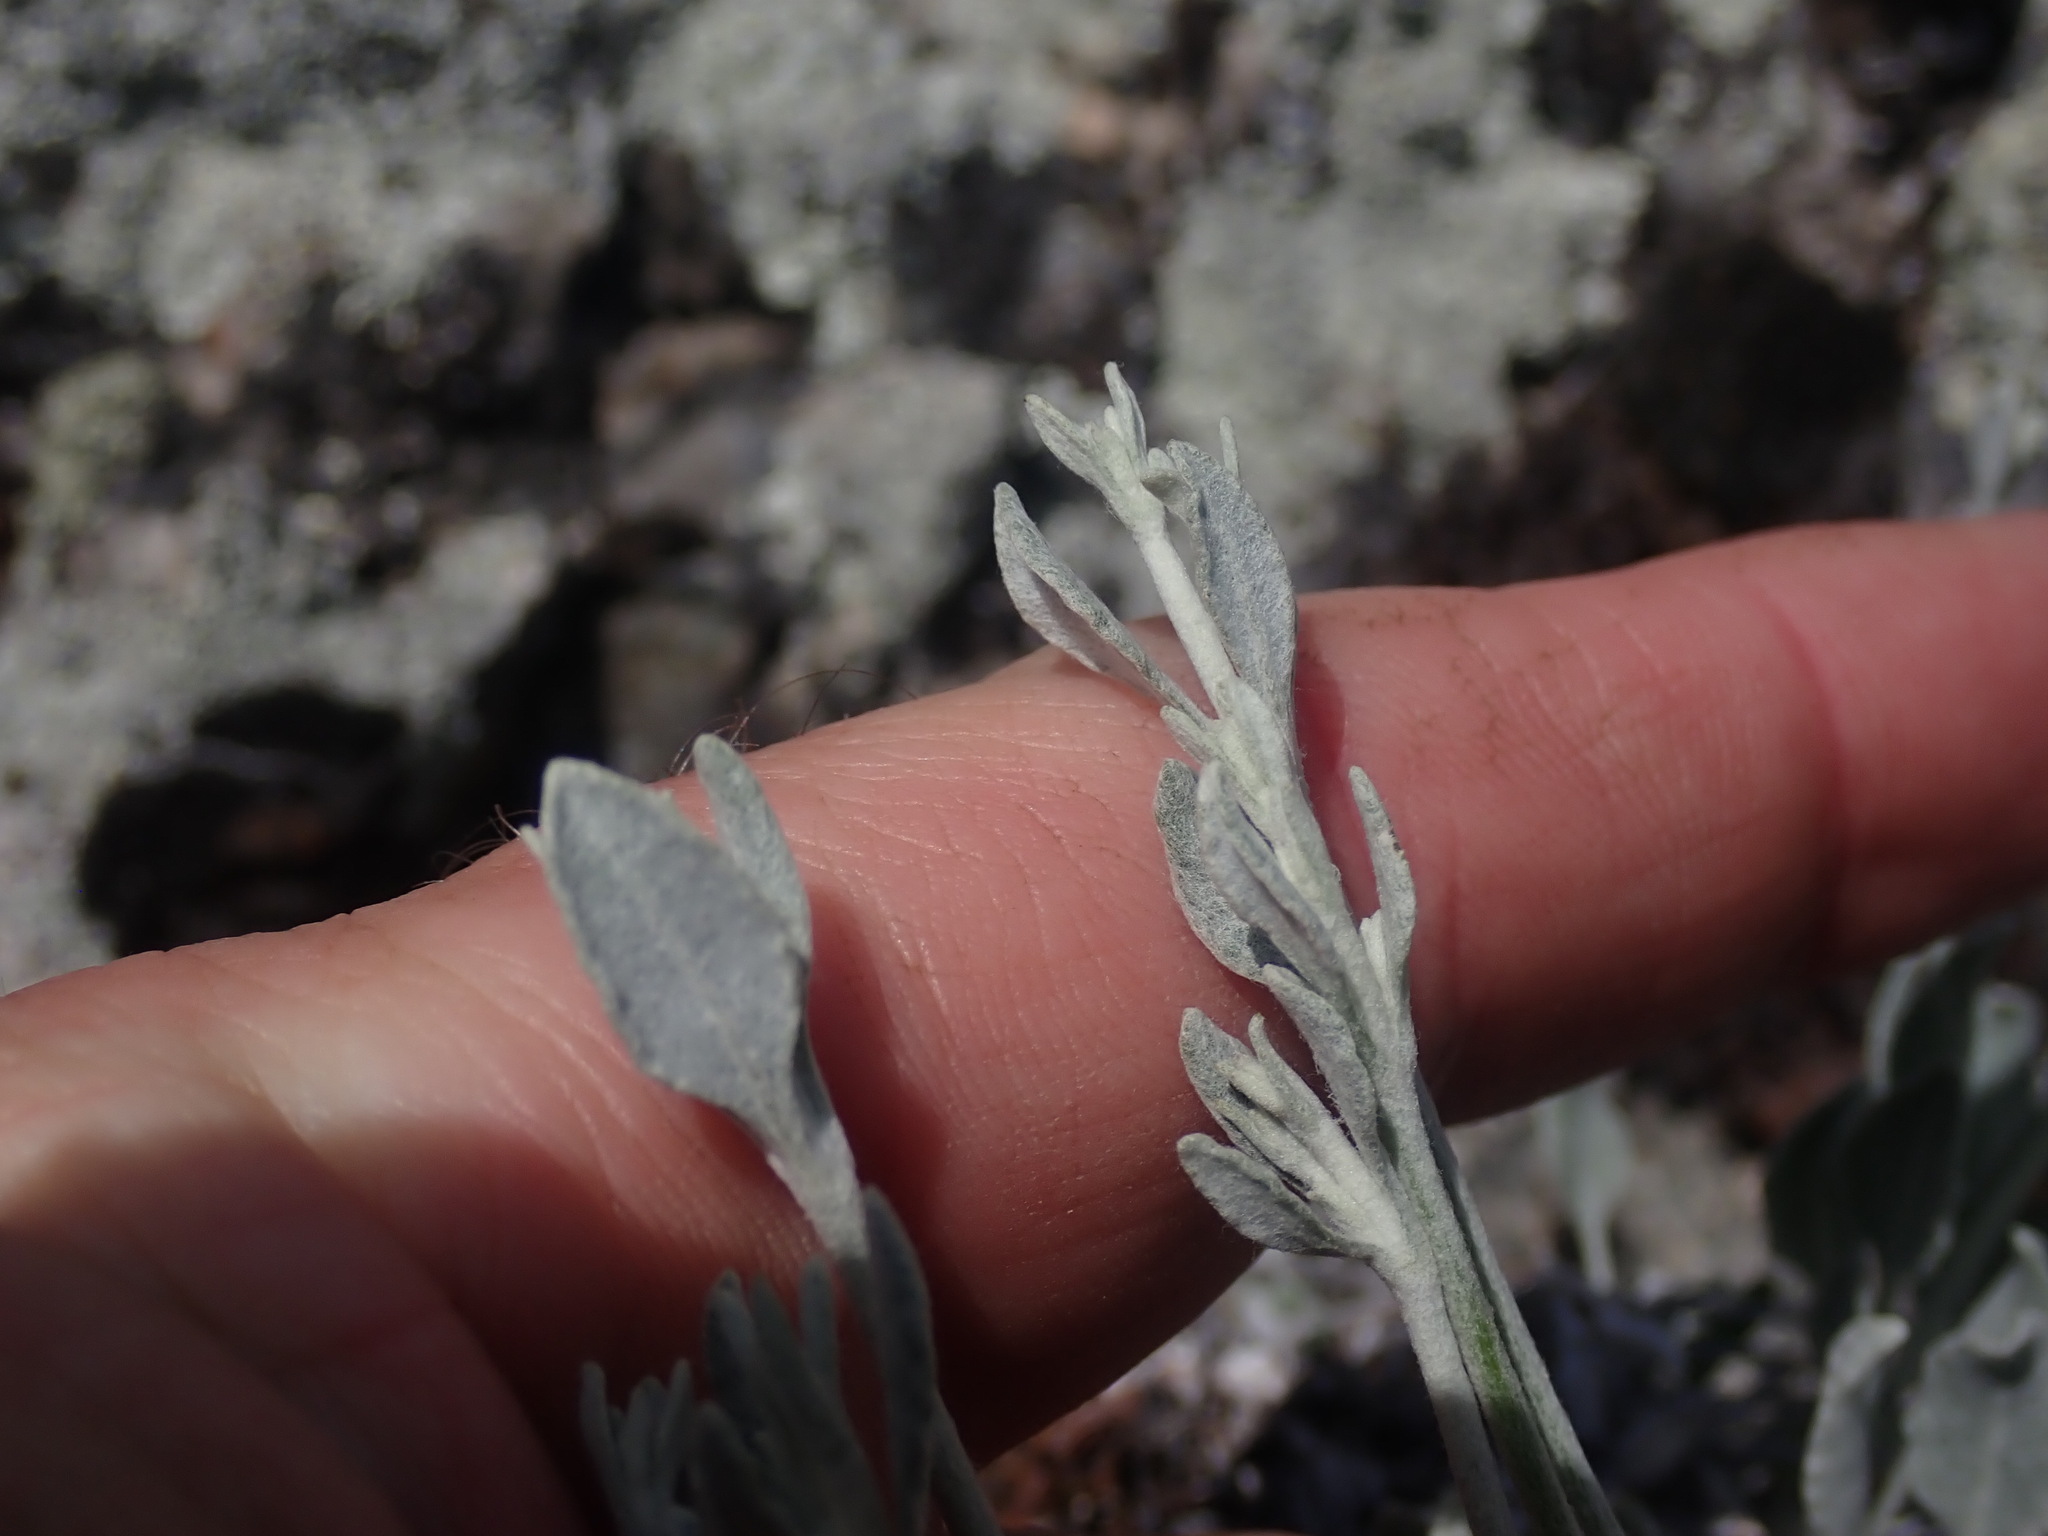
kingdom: Plantae
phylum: Tracheophyta
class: Magnoliopsida
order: Caryophyllales
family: Polygonaceae
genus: Eriogonum
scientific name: Eriogonum niveum
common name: Snow wild buckwheat
